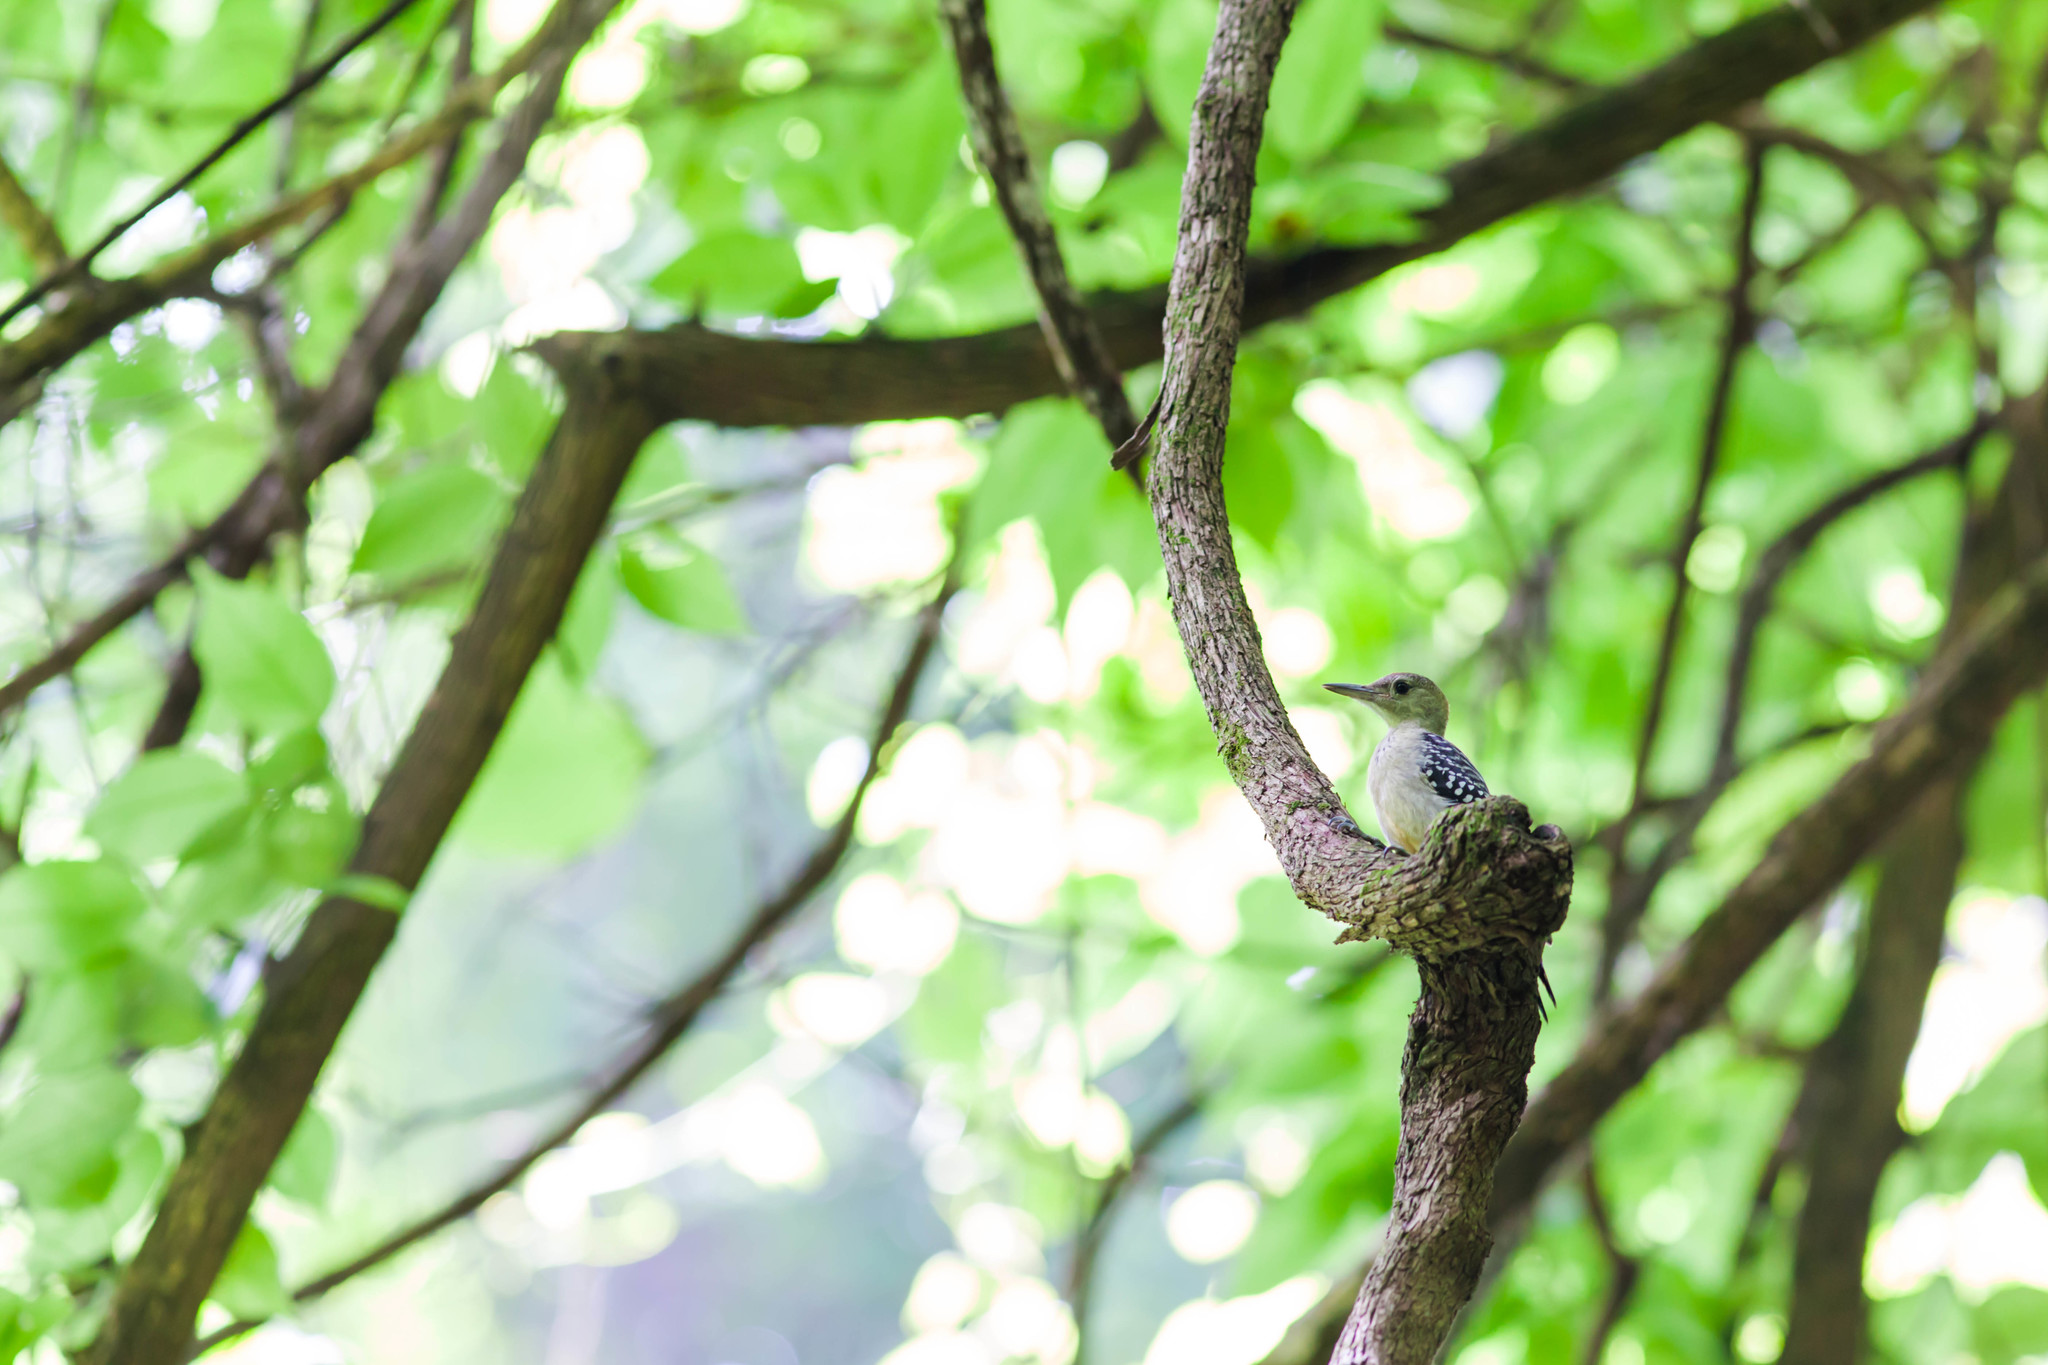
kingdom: Animalia
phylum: Chordata
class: Aves
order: Piciformes
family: Picidae
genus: Melanerpes
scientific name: Melanerpes carolinus
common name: Red-bellied woodpecker
